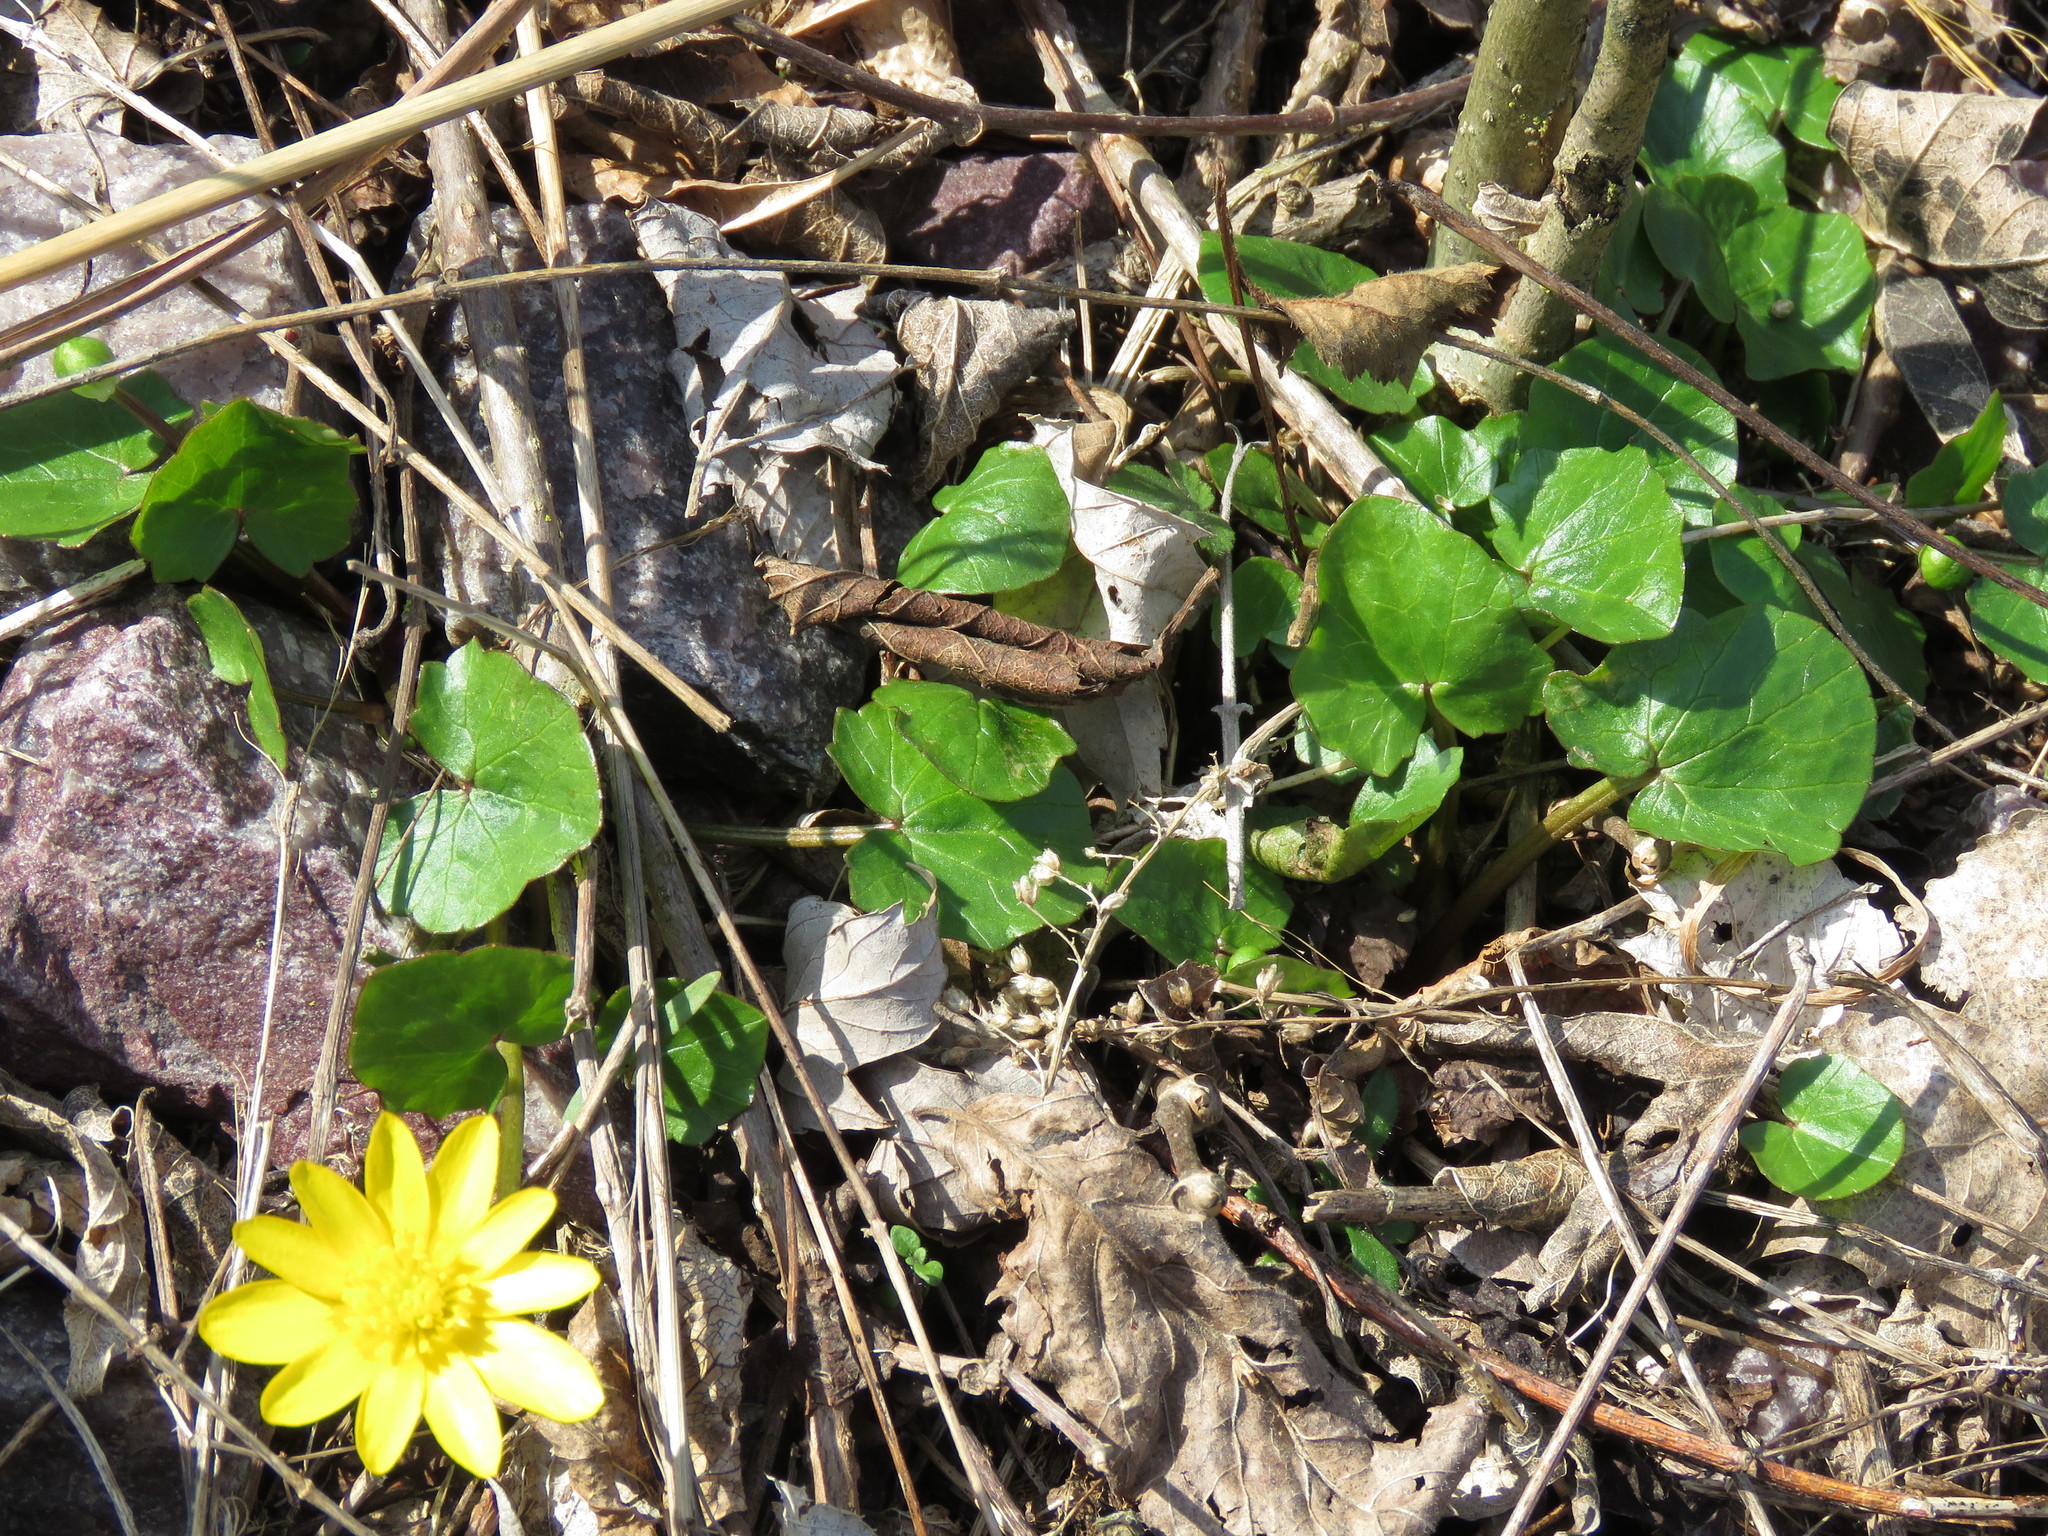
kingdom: Plantae
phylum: Tracheophyta
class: Magnoliopsida
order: Ranunculales
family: Ranunculaceae
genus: Ficaria
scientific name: Ficaria verna
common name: Lesser celandine
